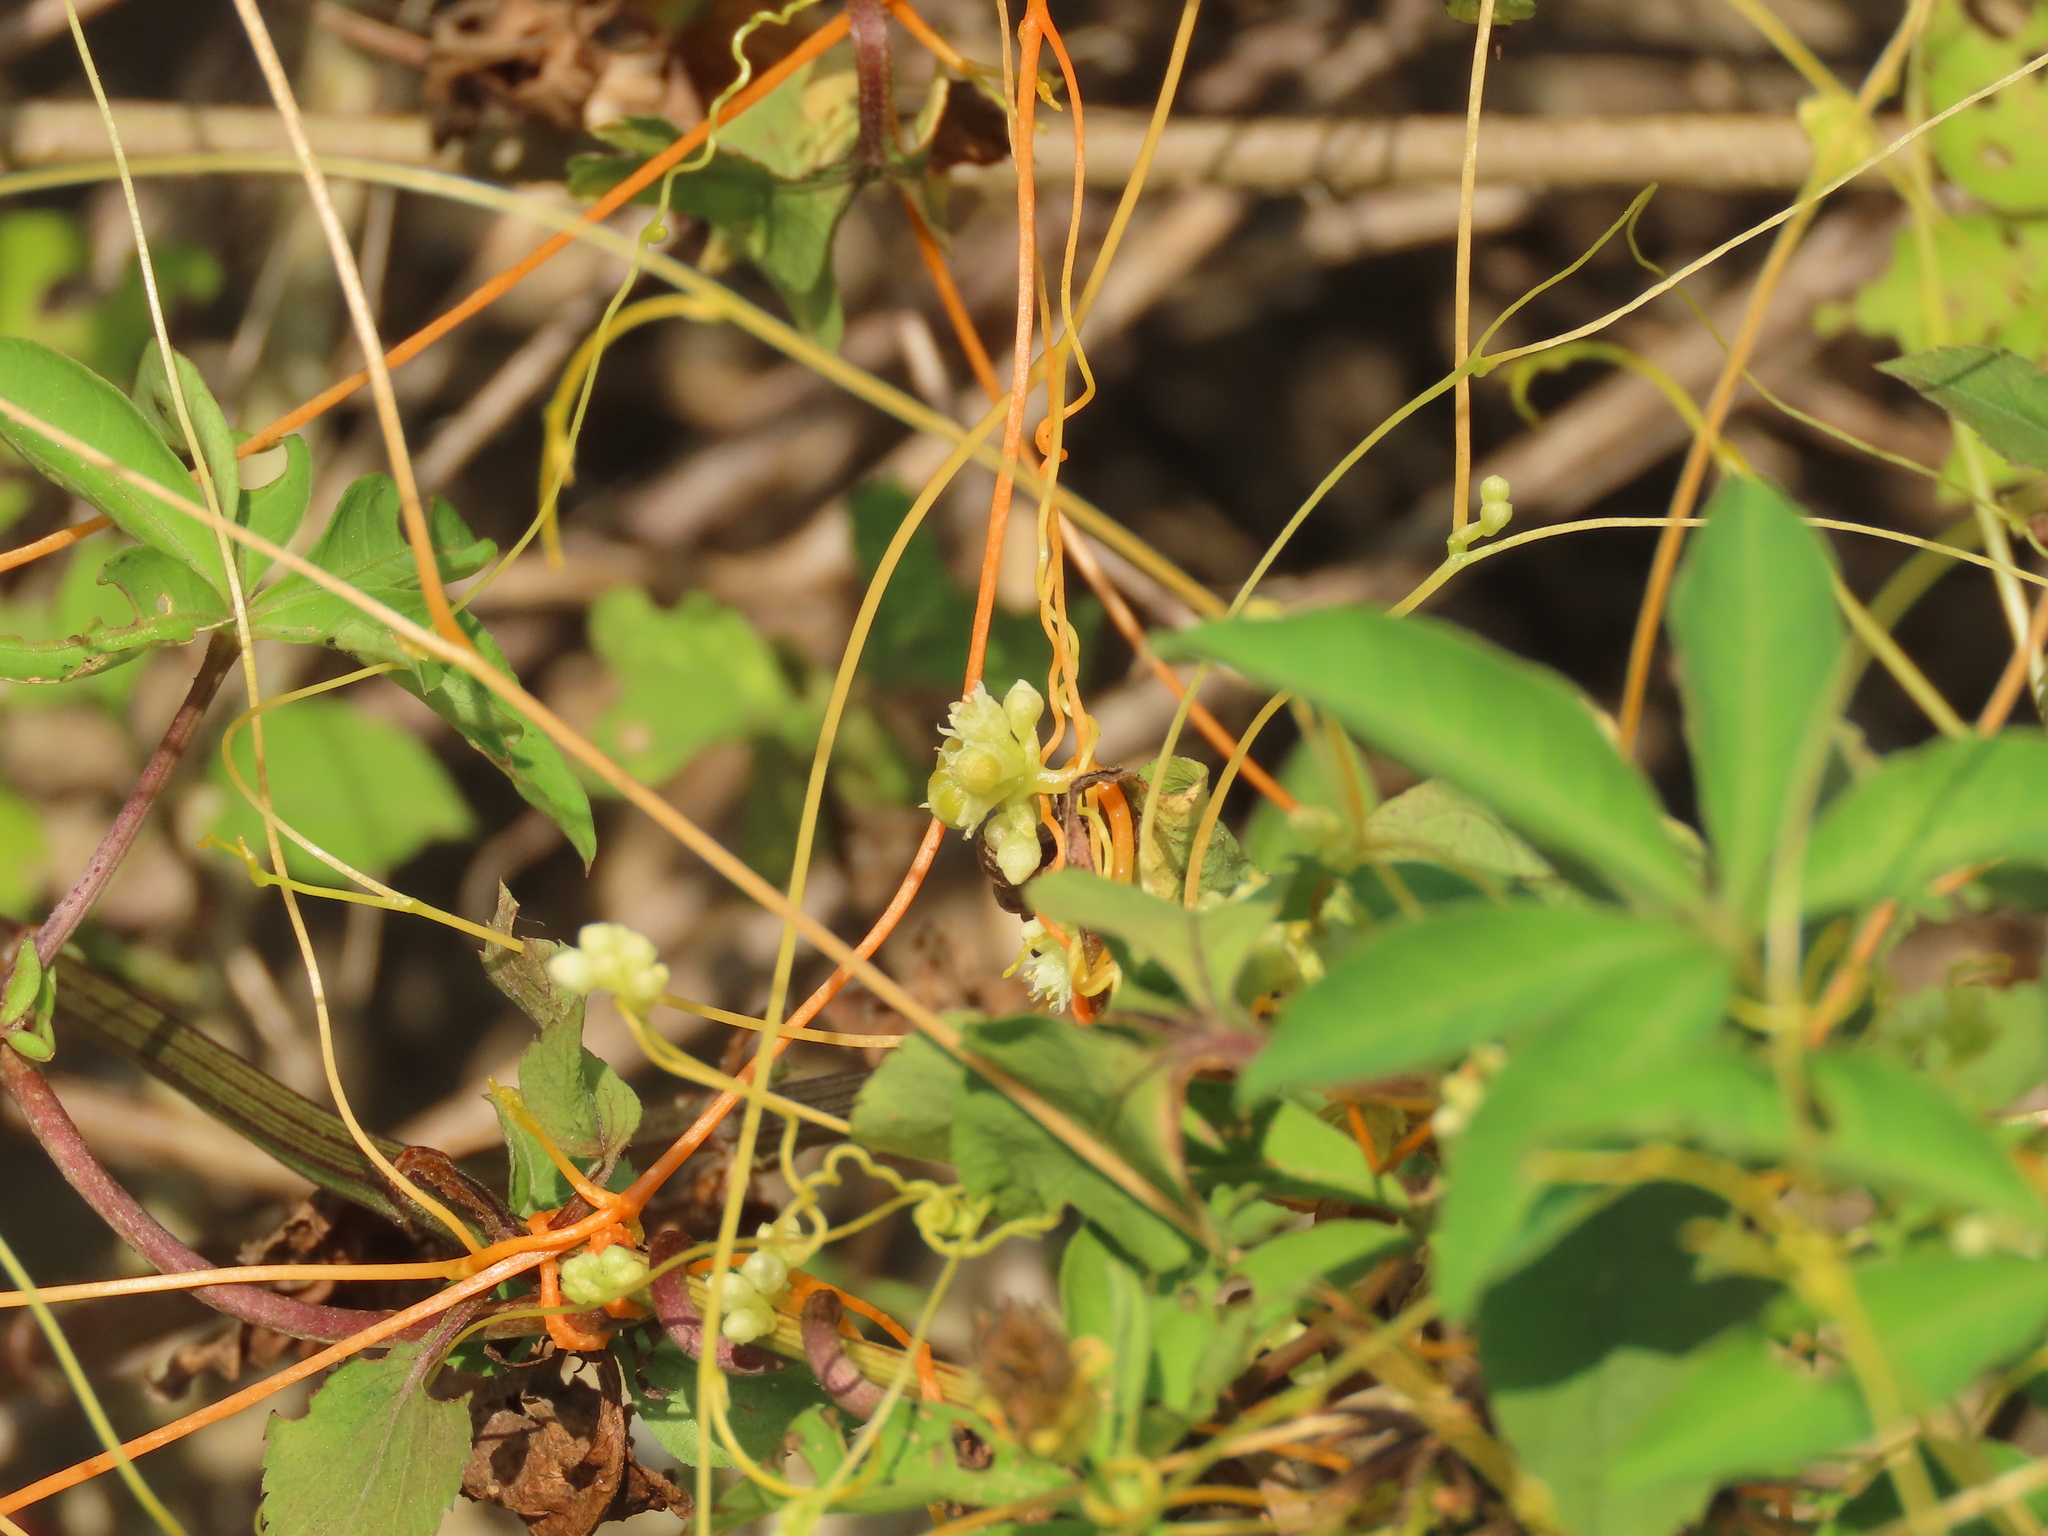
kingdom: Plantae
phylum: Tracheophyta
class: Magnoliopsida
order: Solanales
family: Convolvulaceae
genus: Cuscuta
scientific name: Cuscuta campestris
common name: Yellow dodder
